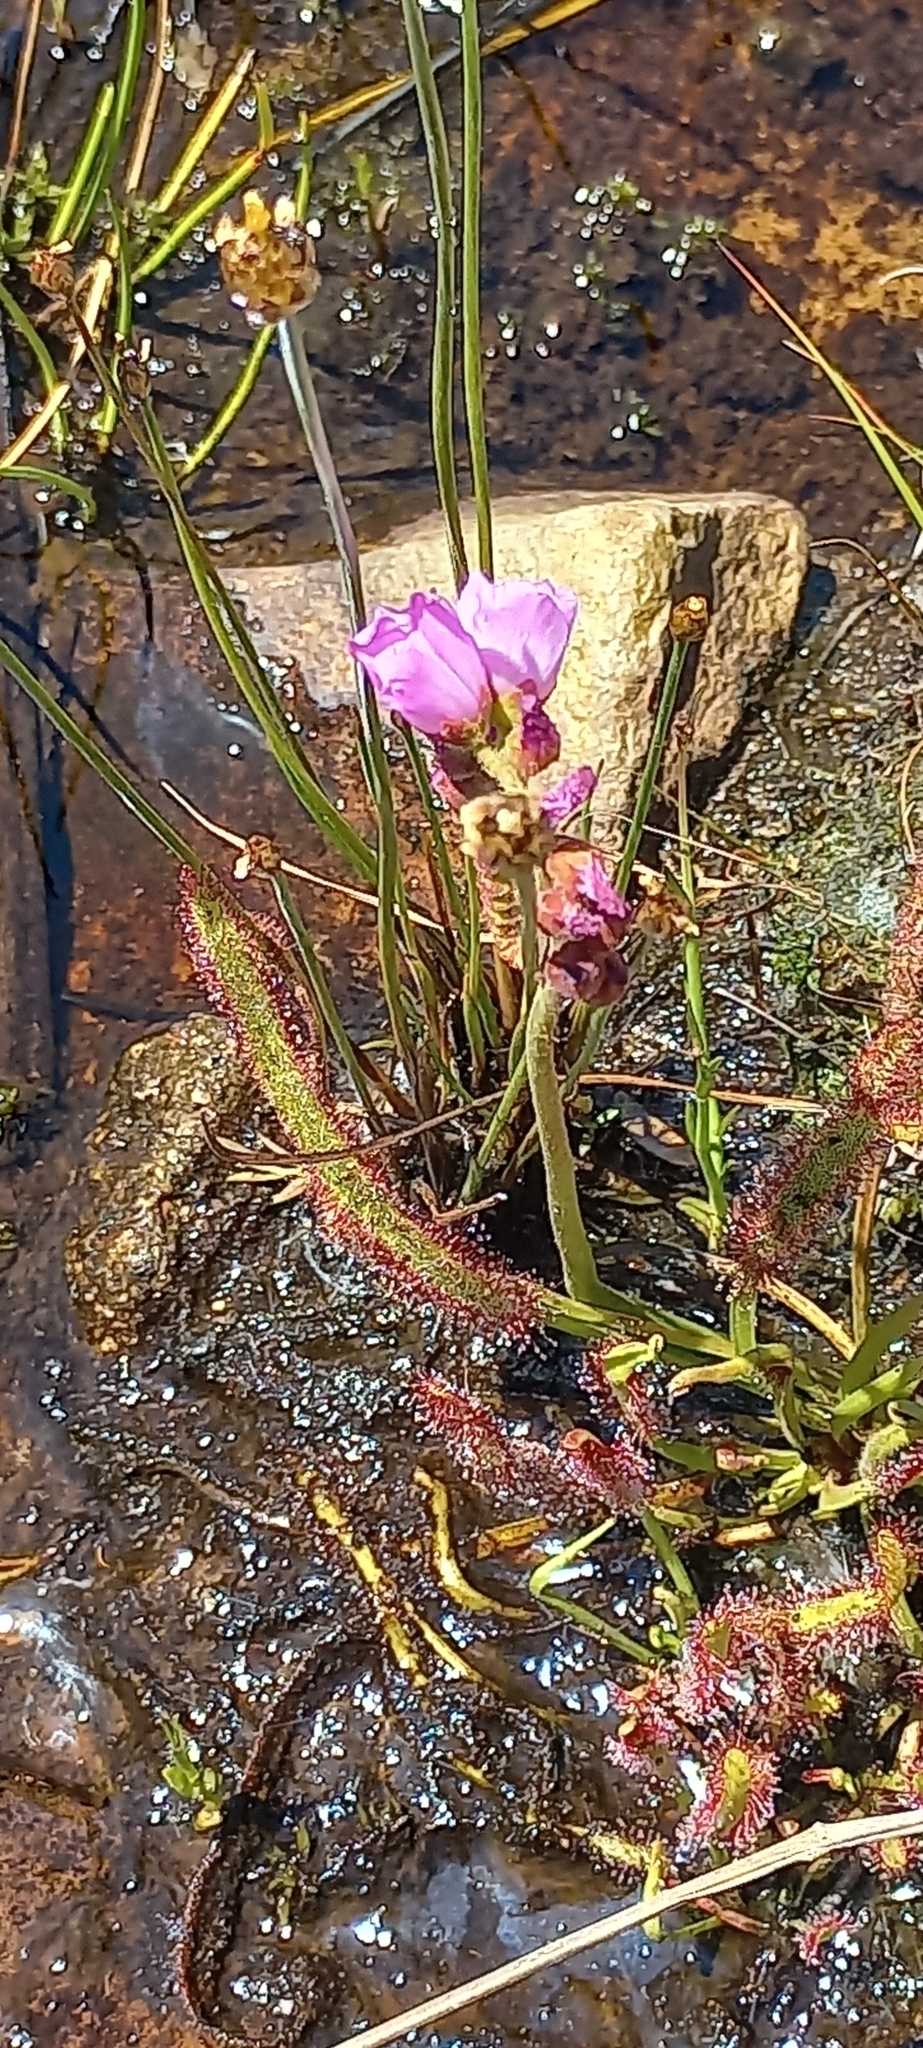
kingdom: Plantae
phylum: Tracheophyta
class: Magnoliopsida
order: Caryophyllales
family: Droseraceae
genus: Drosera
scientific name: Drosera capensis
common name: Cape sundew
